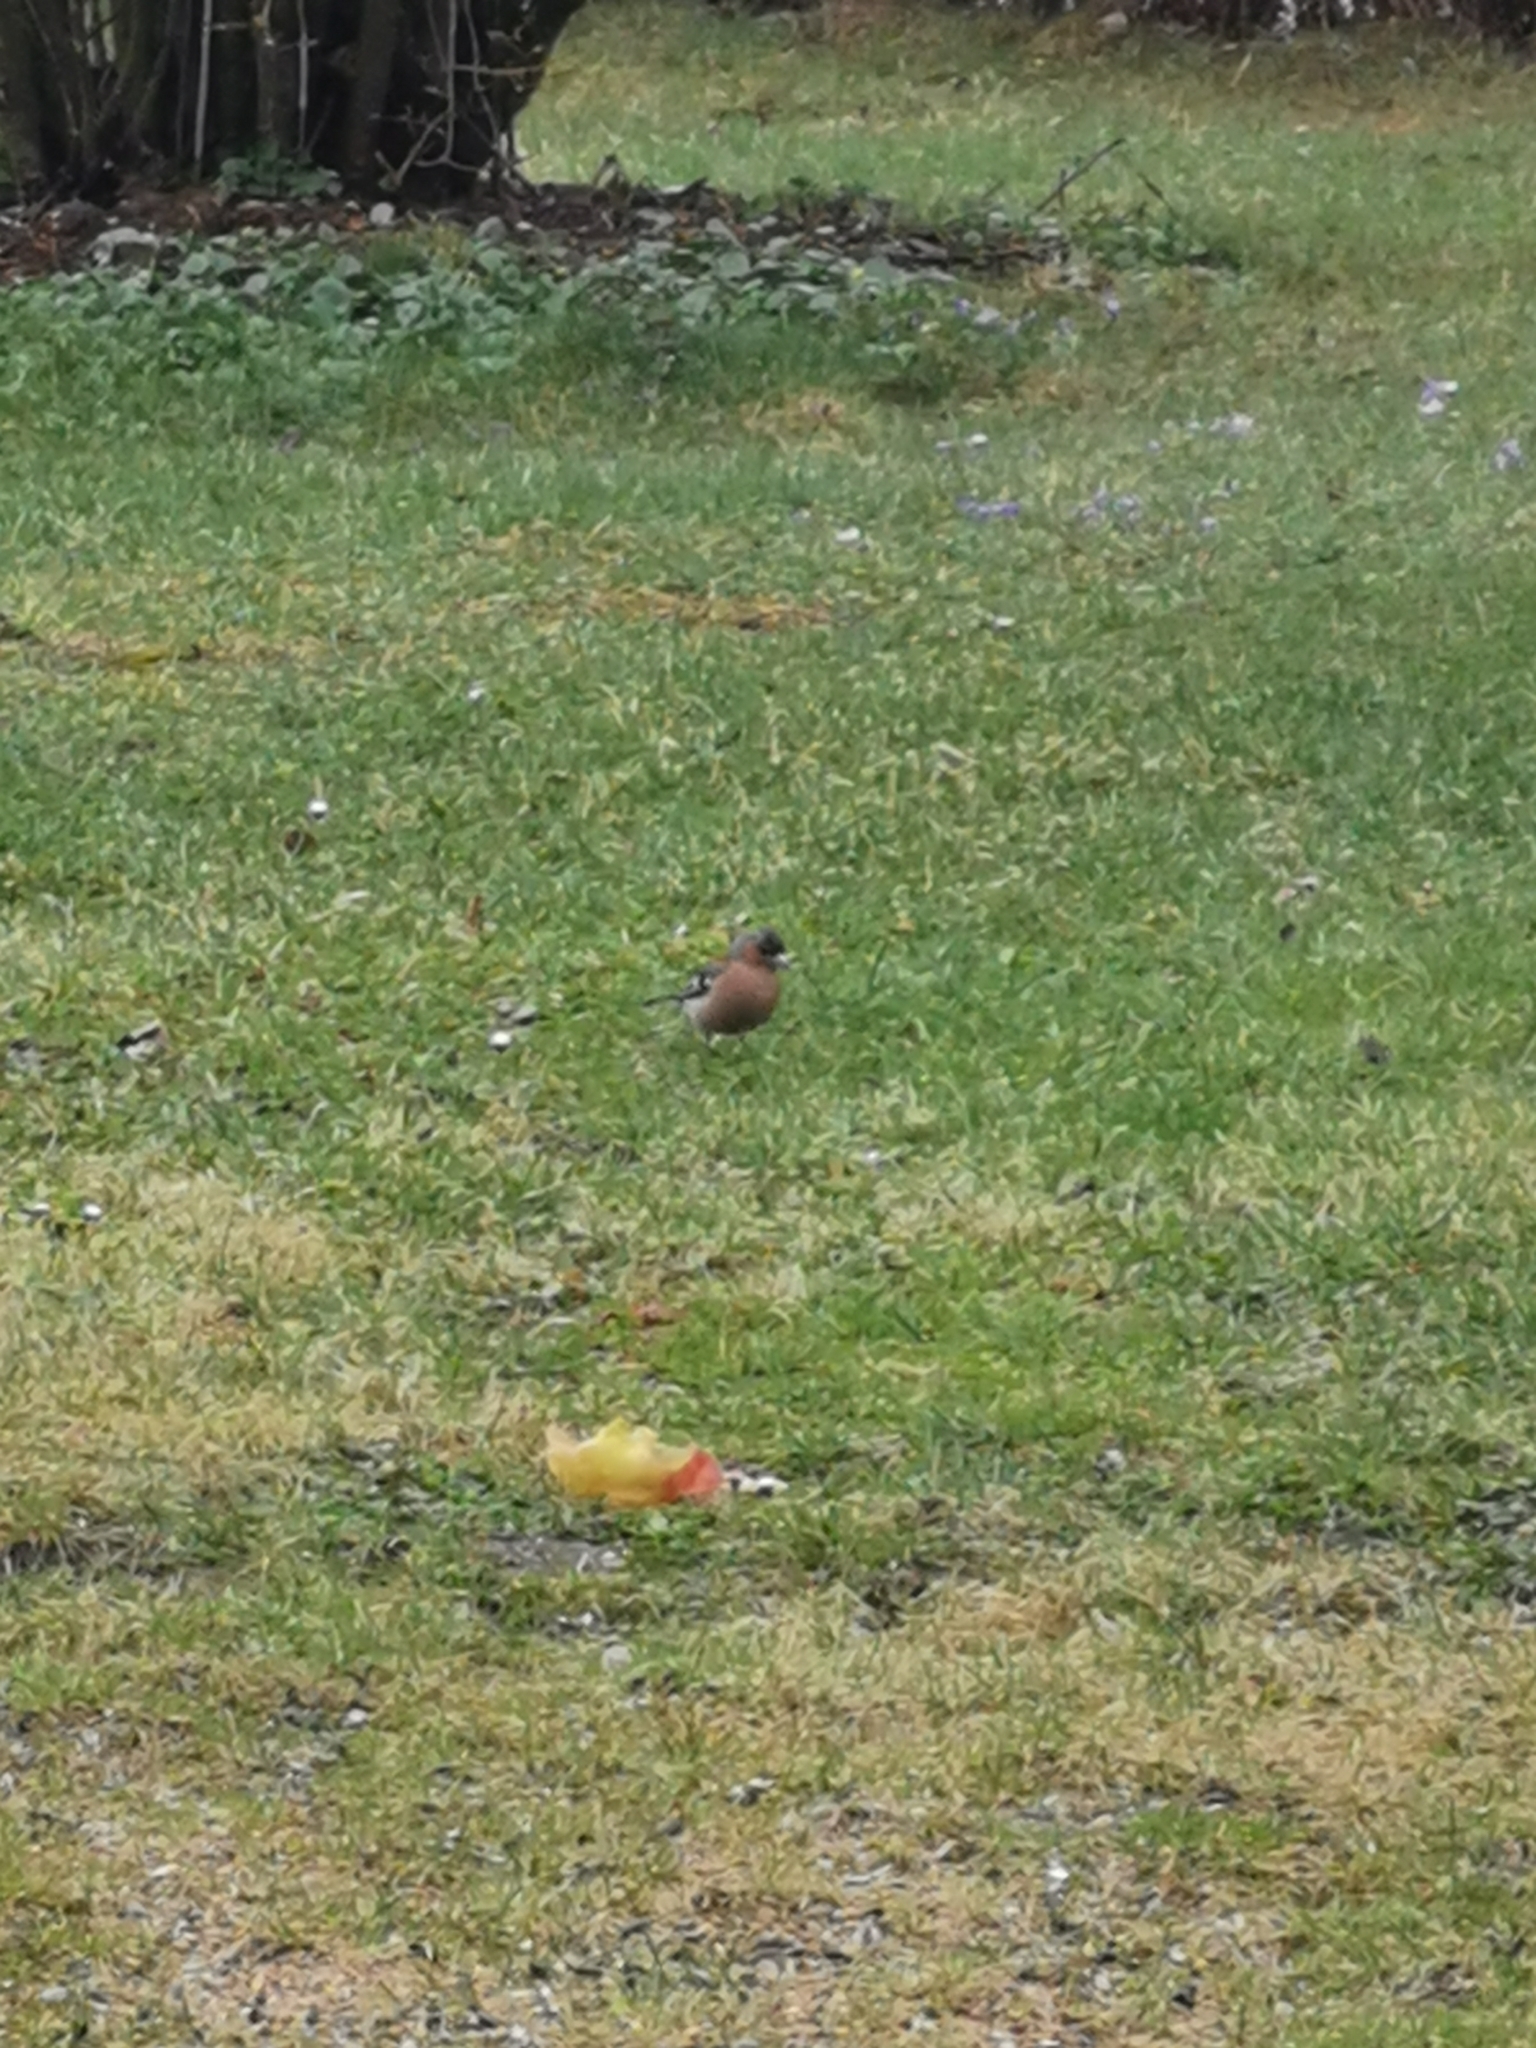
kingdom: Animalia
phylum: Chordata
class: Aves
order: Passeriformes
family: Fringillidae
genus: Fringilla
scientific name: Fringilla coelebs
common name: Common chaffinch
